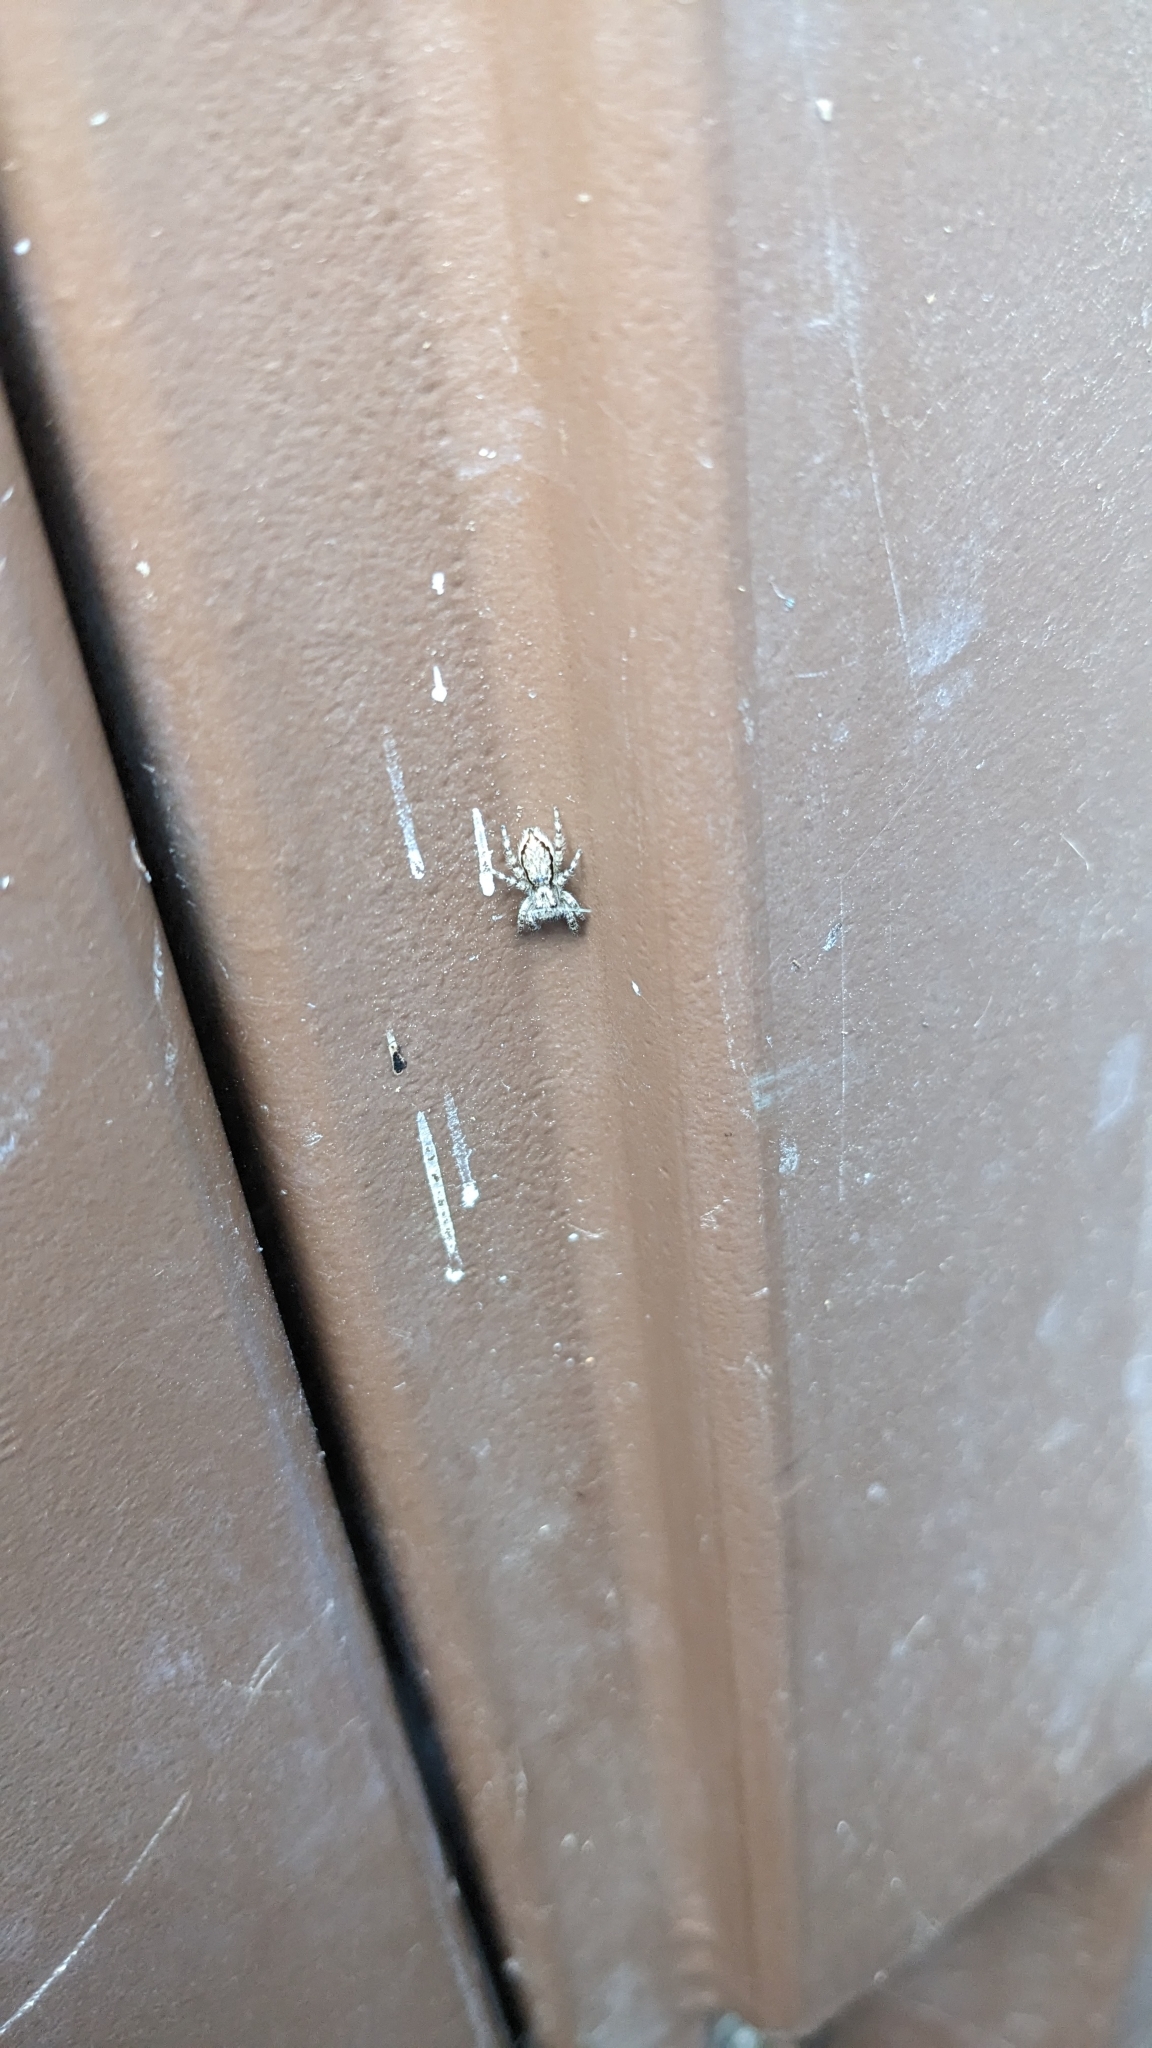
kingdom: Animalia
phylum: Arthropoda
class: Arachnida
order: Araneae
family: Salticidae
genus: Menemerus
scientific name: Menemerus bivittatus
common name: Gray wall jumper
